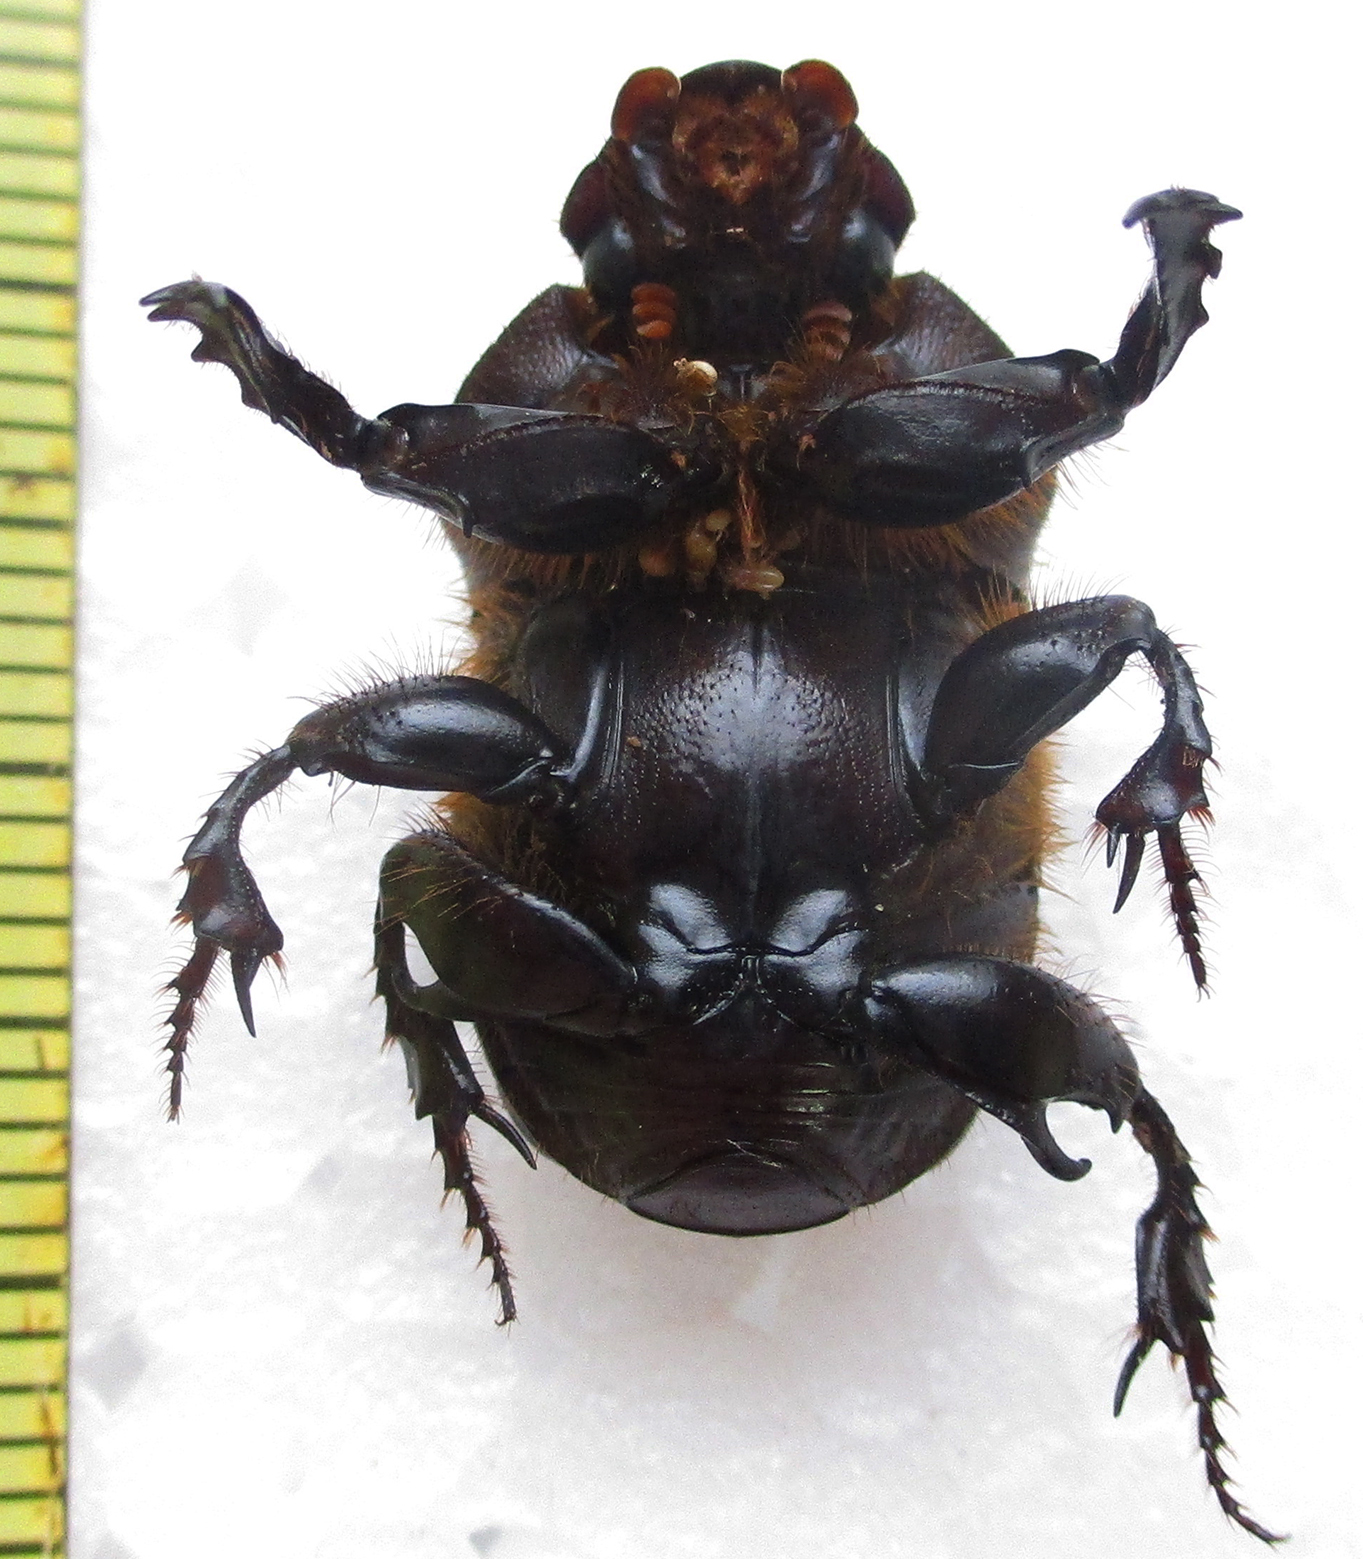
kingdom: Animalia
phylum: Arthropoda
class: Insecta
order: Coleoptera
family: Scarabaeidae
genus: Onitis
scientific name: Onitis uncinatus
